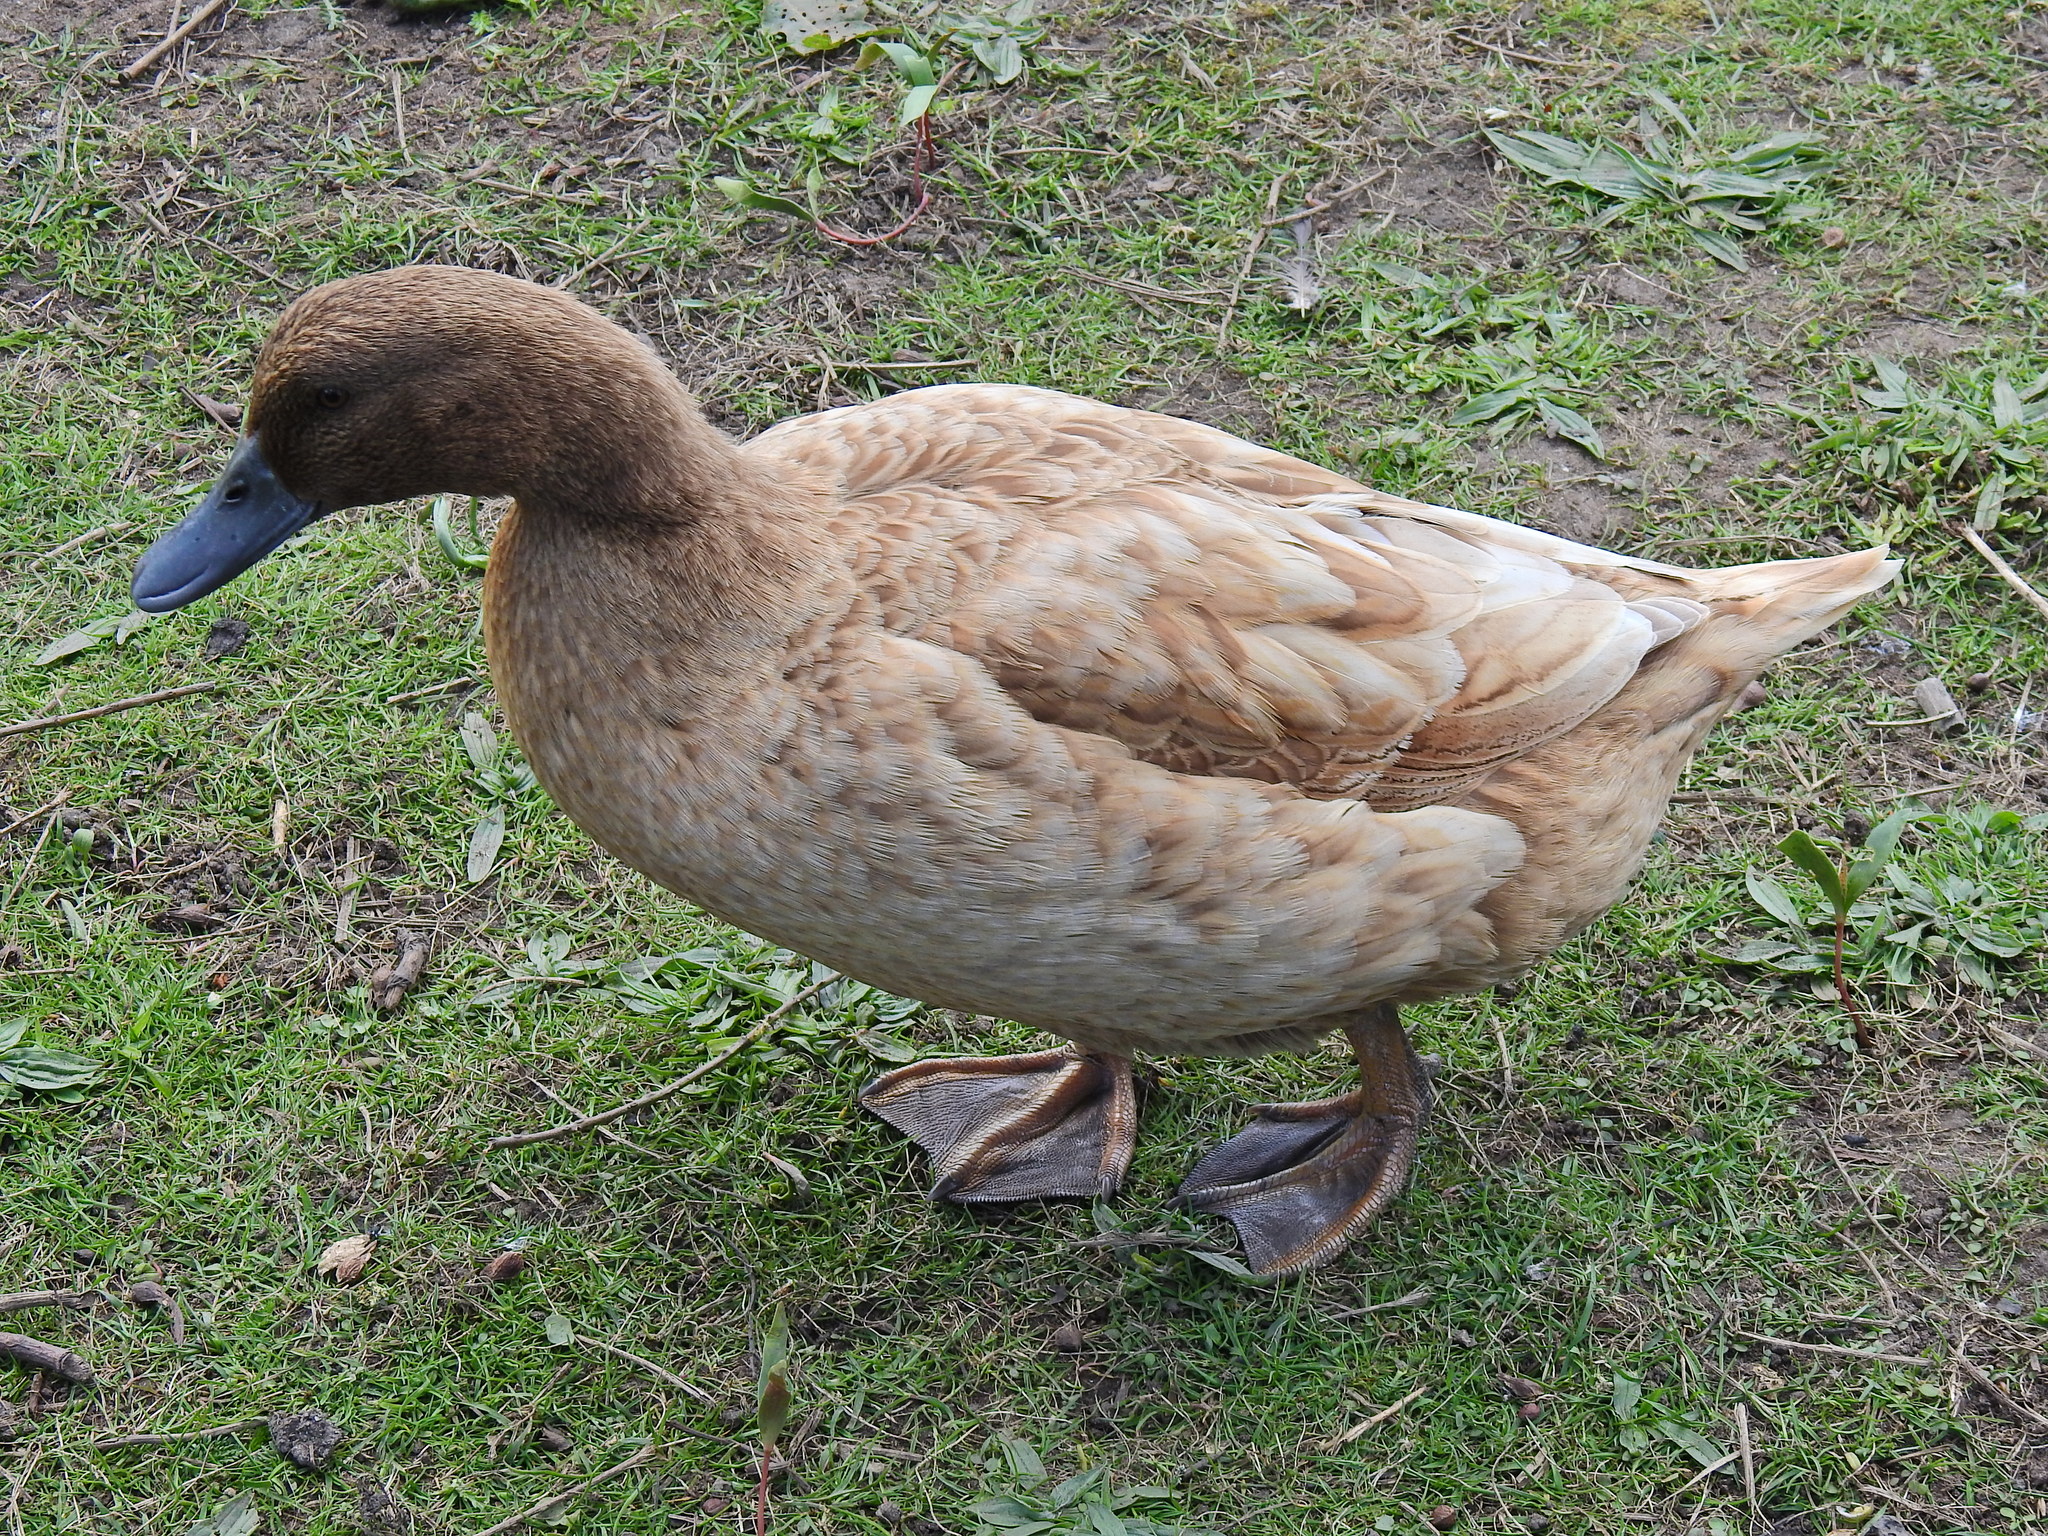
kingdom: Animalia
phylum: Chordata
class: Aves
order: Anseriformes
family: Anatidae
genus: Anas
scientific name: Anas platyrhynchos
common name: Mallard
